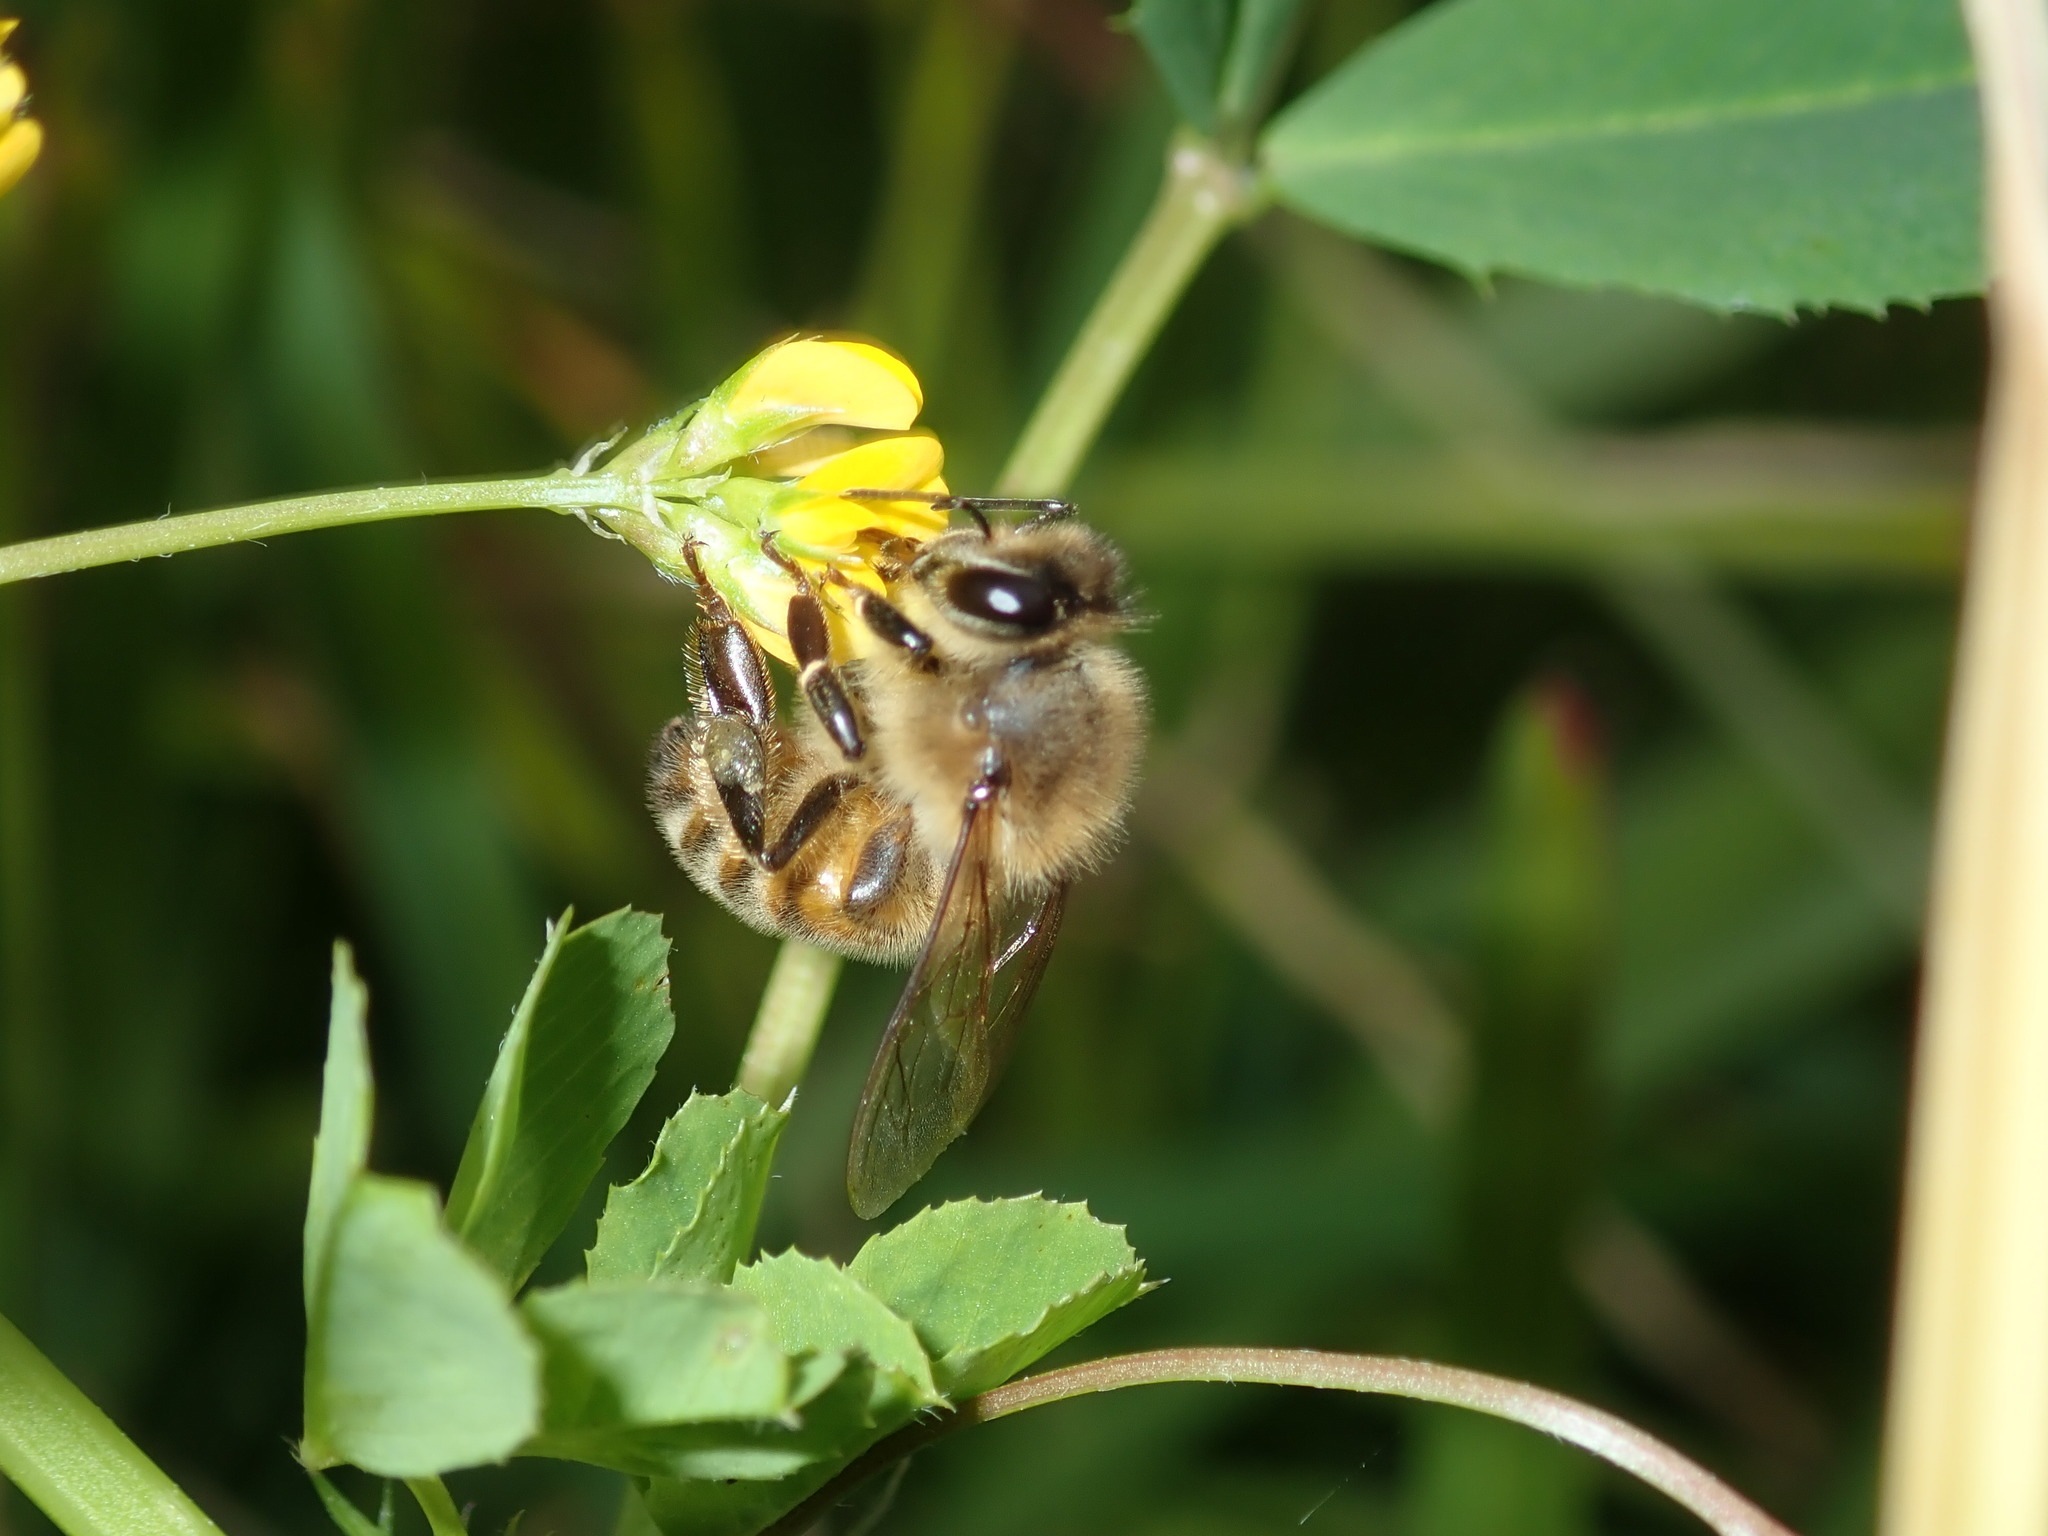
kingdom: Animalia
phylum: Arthropoda
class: Insecta
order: Hymenoptera
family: Apidae
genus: Apis
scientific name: Apis mellifera
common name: Honey bee
